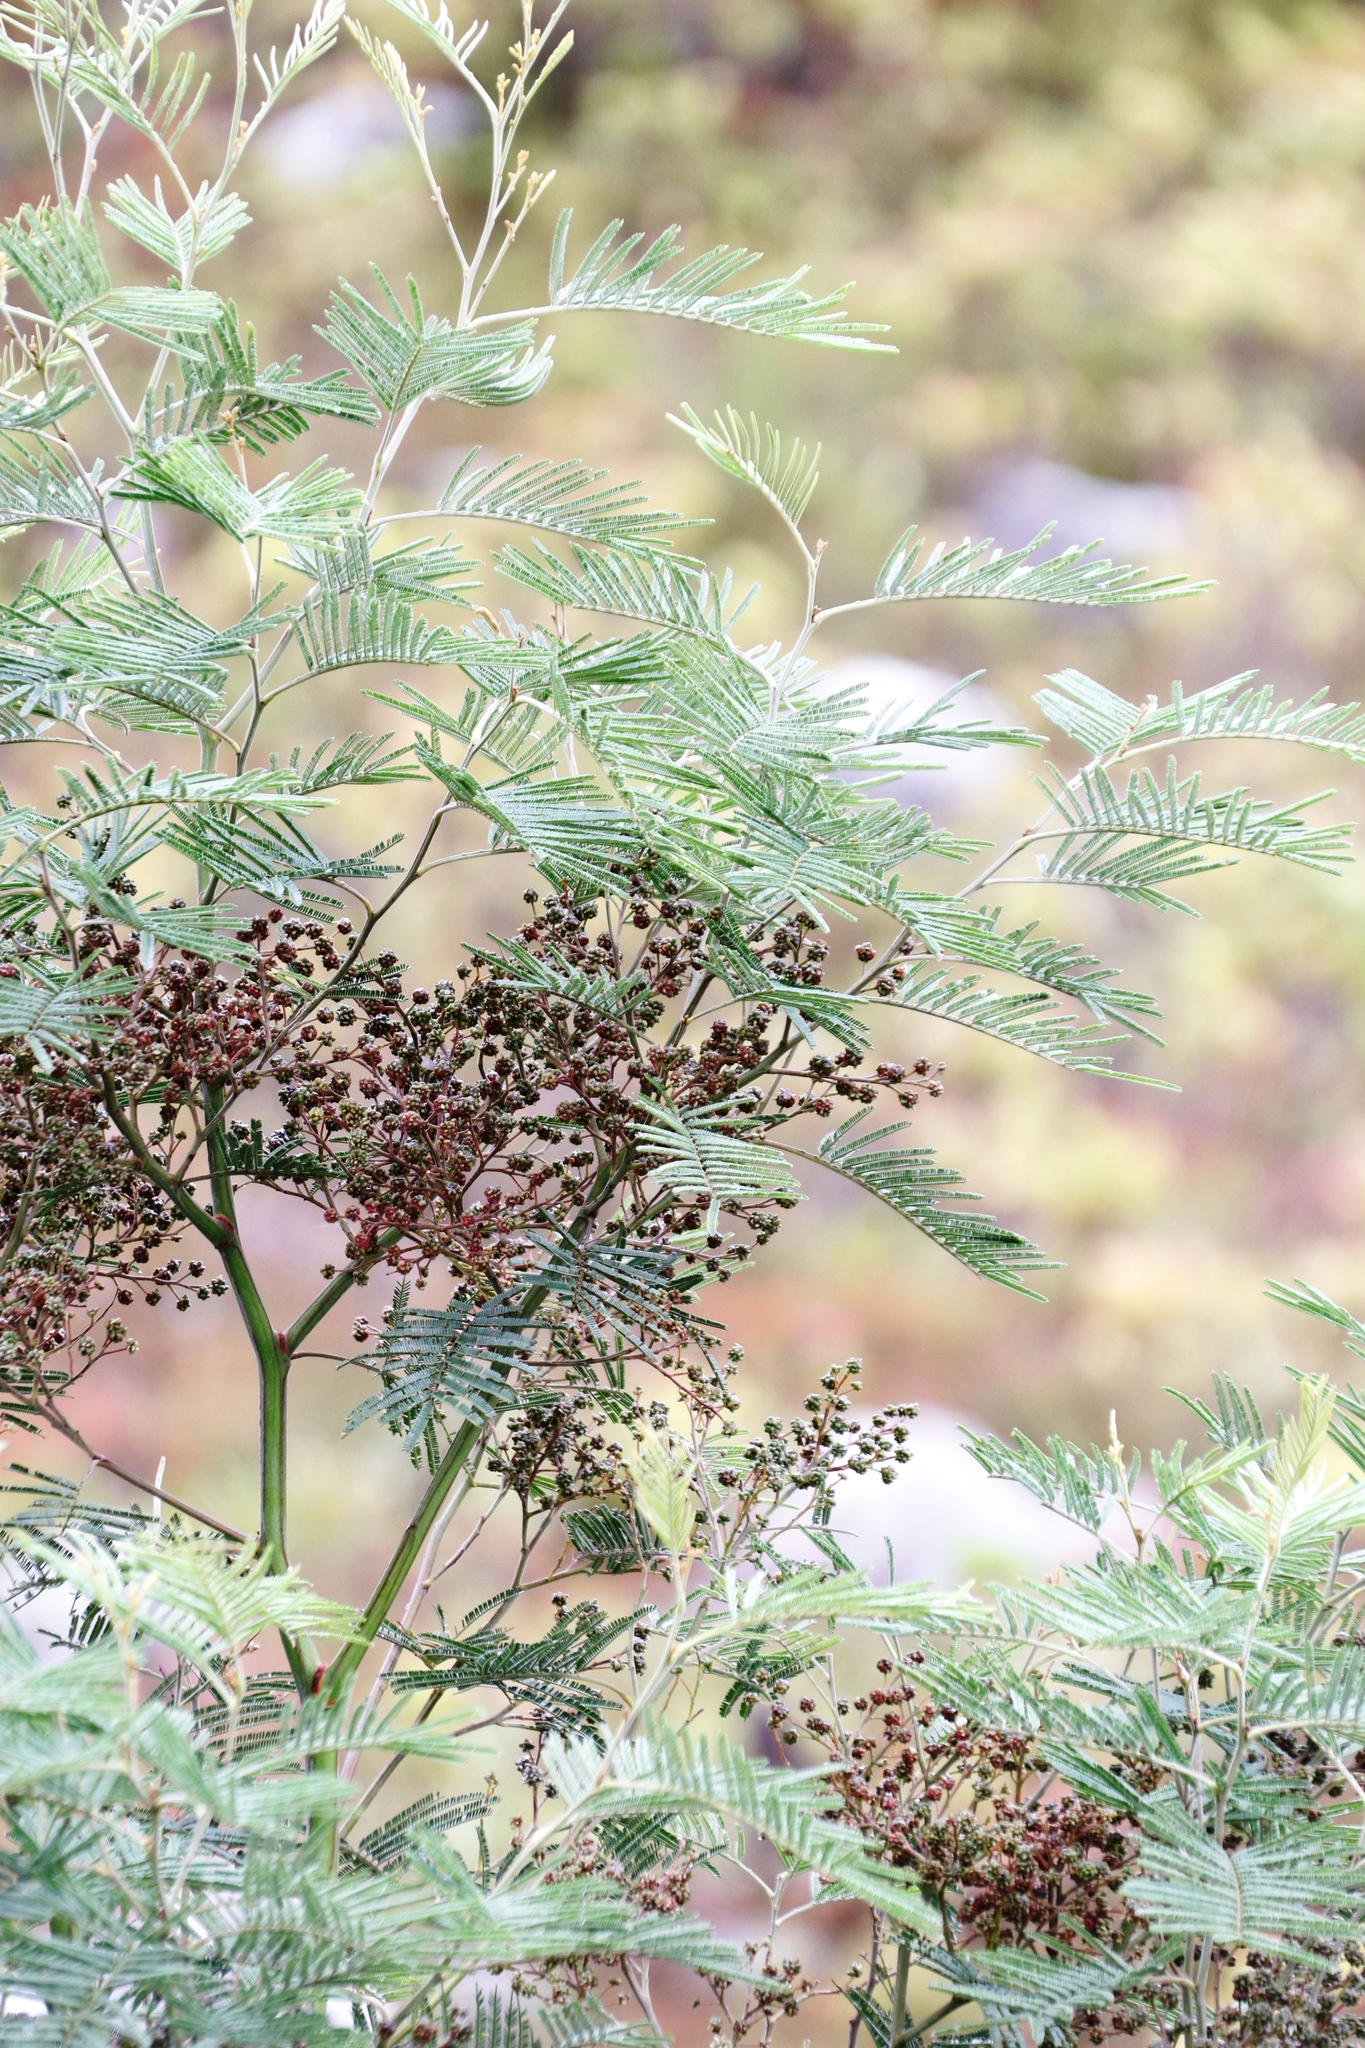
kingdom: Animalia
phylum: Arthropoda
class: Insecta
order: Diptera
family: Cecidomyiidae
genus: Dasineura
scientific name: Dasineura rubiformis
